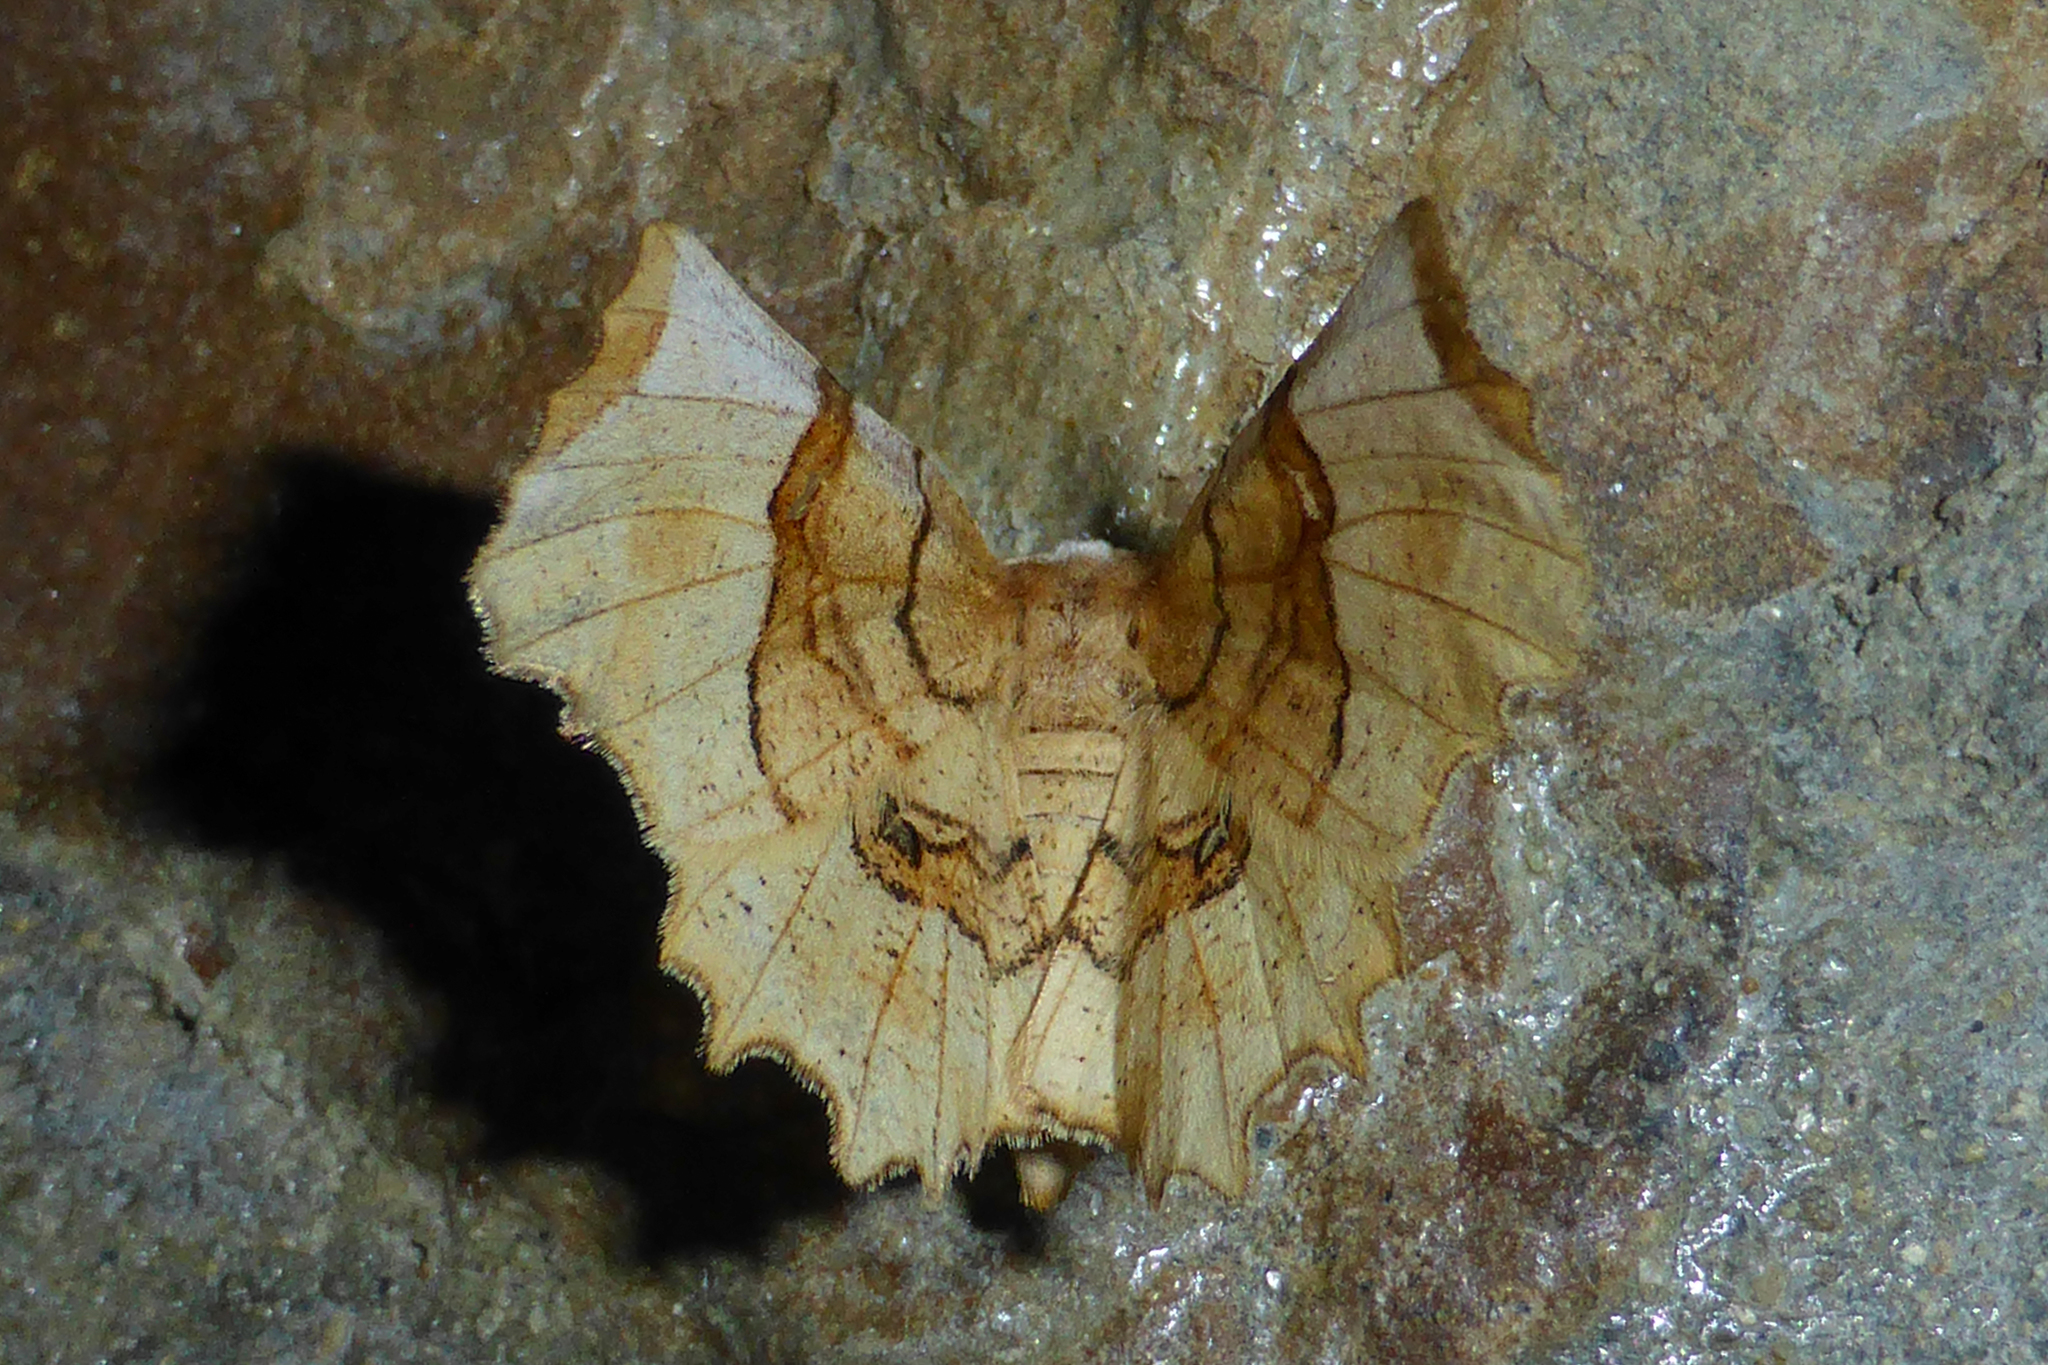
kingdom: Animalia
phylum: Arthropoda
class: Insecta
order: Lepidoptera
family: Geometridae
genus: Selenia
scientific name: Selenia lunularia
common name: Lunar thorn
